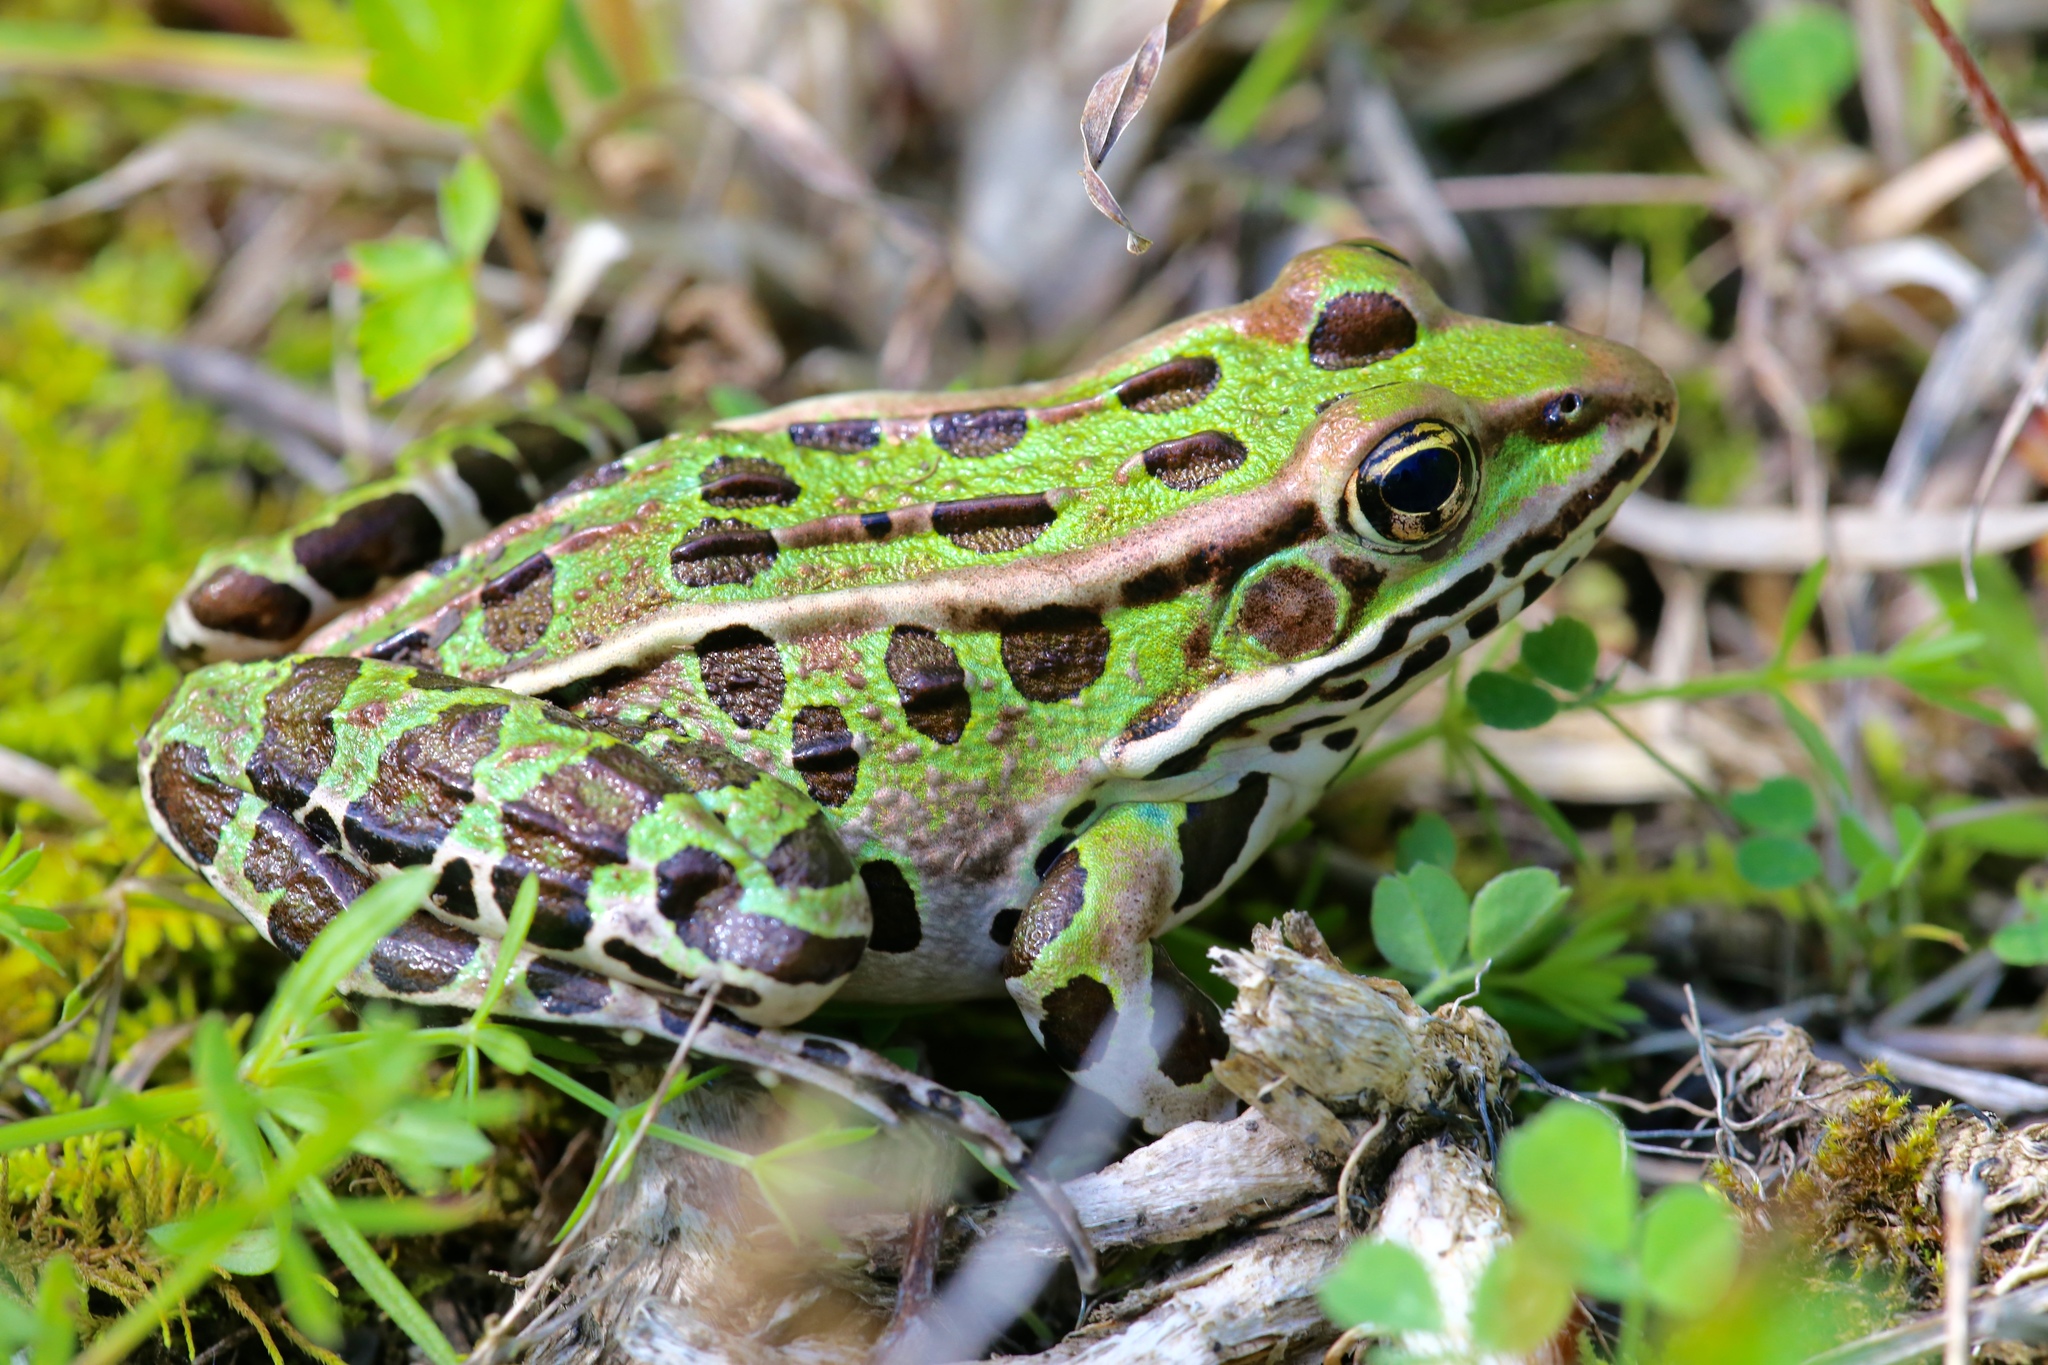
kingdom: Animalia
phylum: Chordata
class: Amphibia
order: Anura
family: Ranidae
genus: Lithobates
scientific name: Lithobates pipiens
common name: Northern leopard frog
